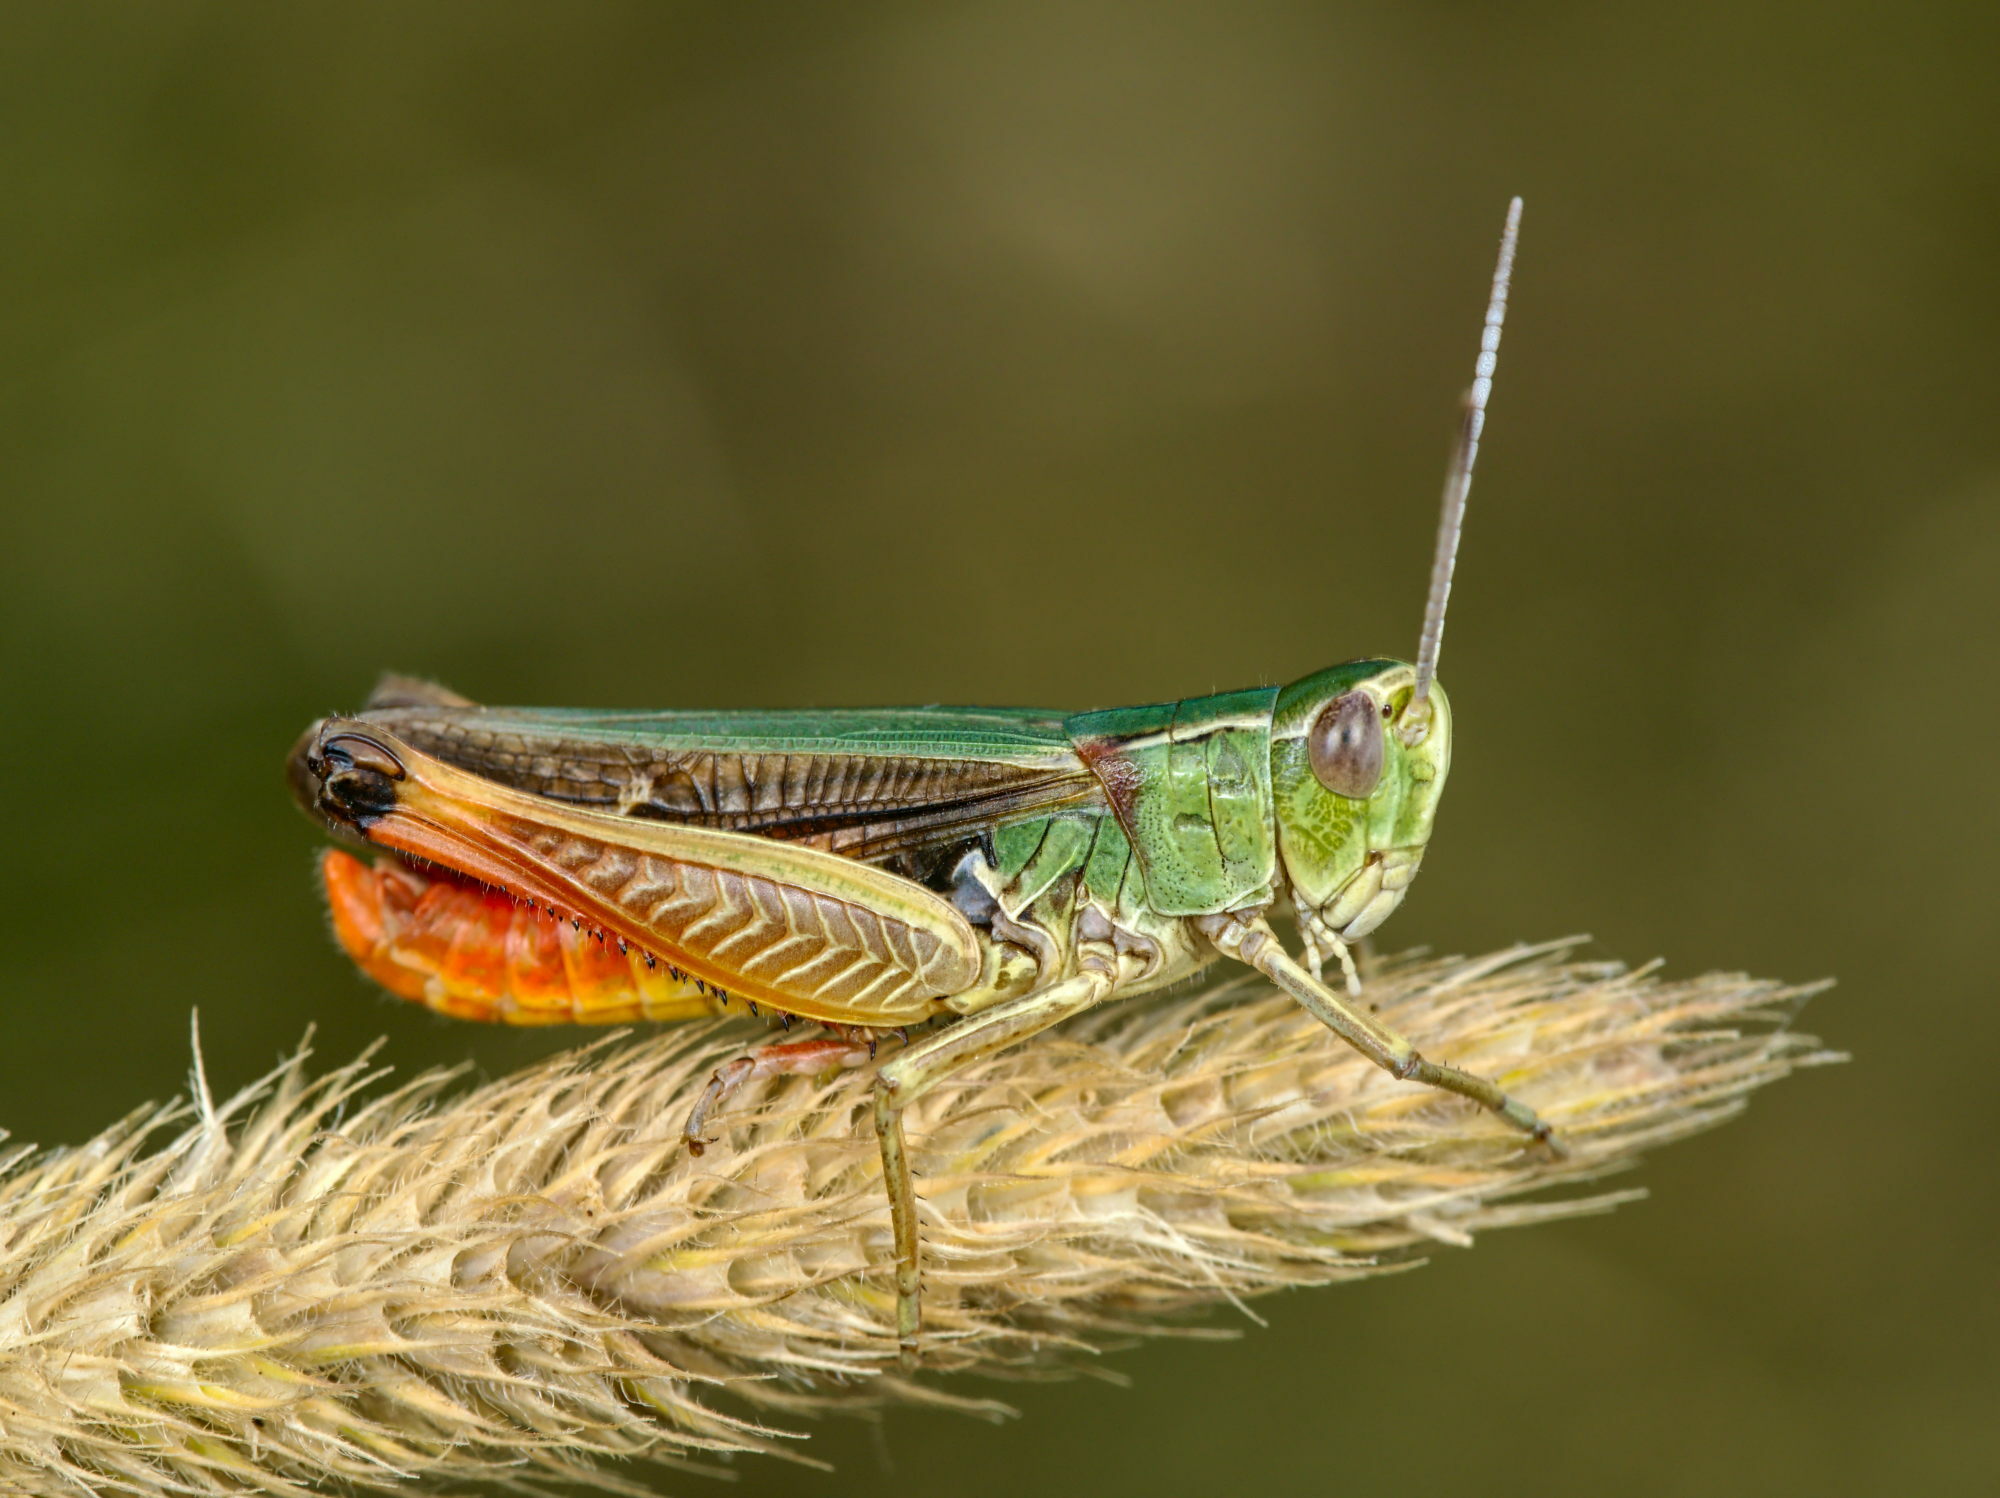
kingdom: Animalia
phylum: Arthropoda
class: Insecta
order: Orthoptera
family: Acrididae
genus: Stenobothrus
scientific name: Stenobothrus lineatus
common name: Stripe-winged grasshopper
